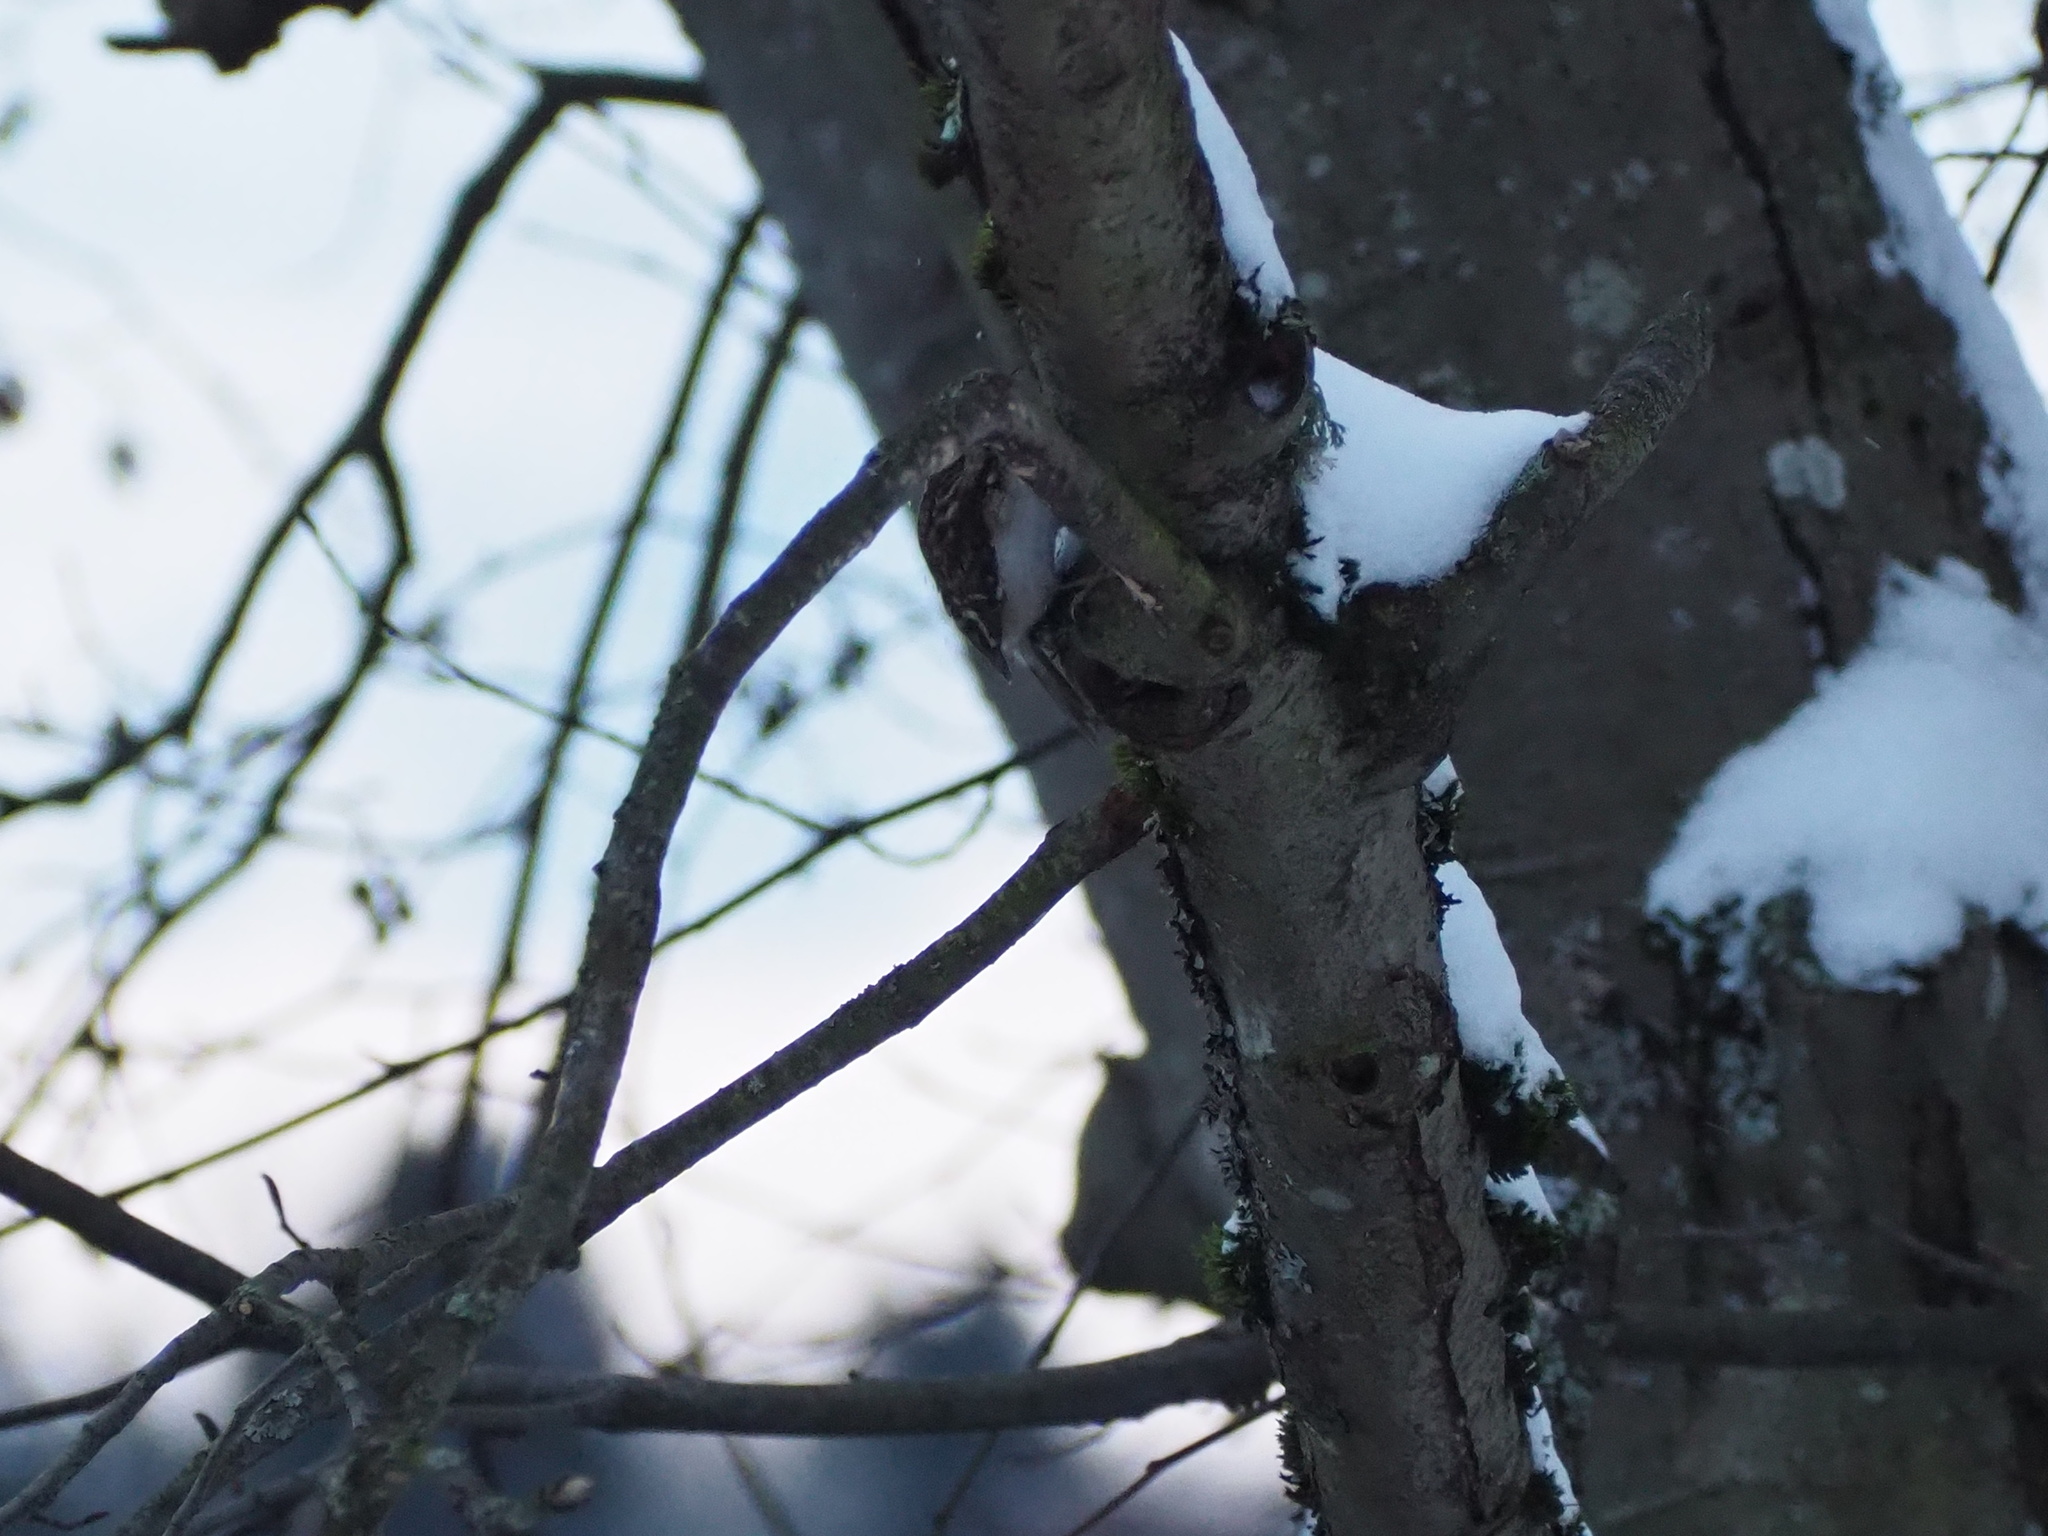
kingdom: Animalia
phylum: Chordata
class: Aves
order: Passeriformes
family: Certhiidae
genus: Certhia
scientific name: Certhia americana
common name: Brown creeper
